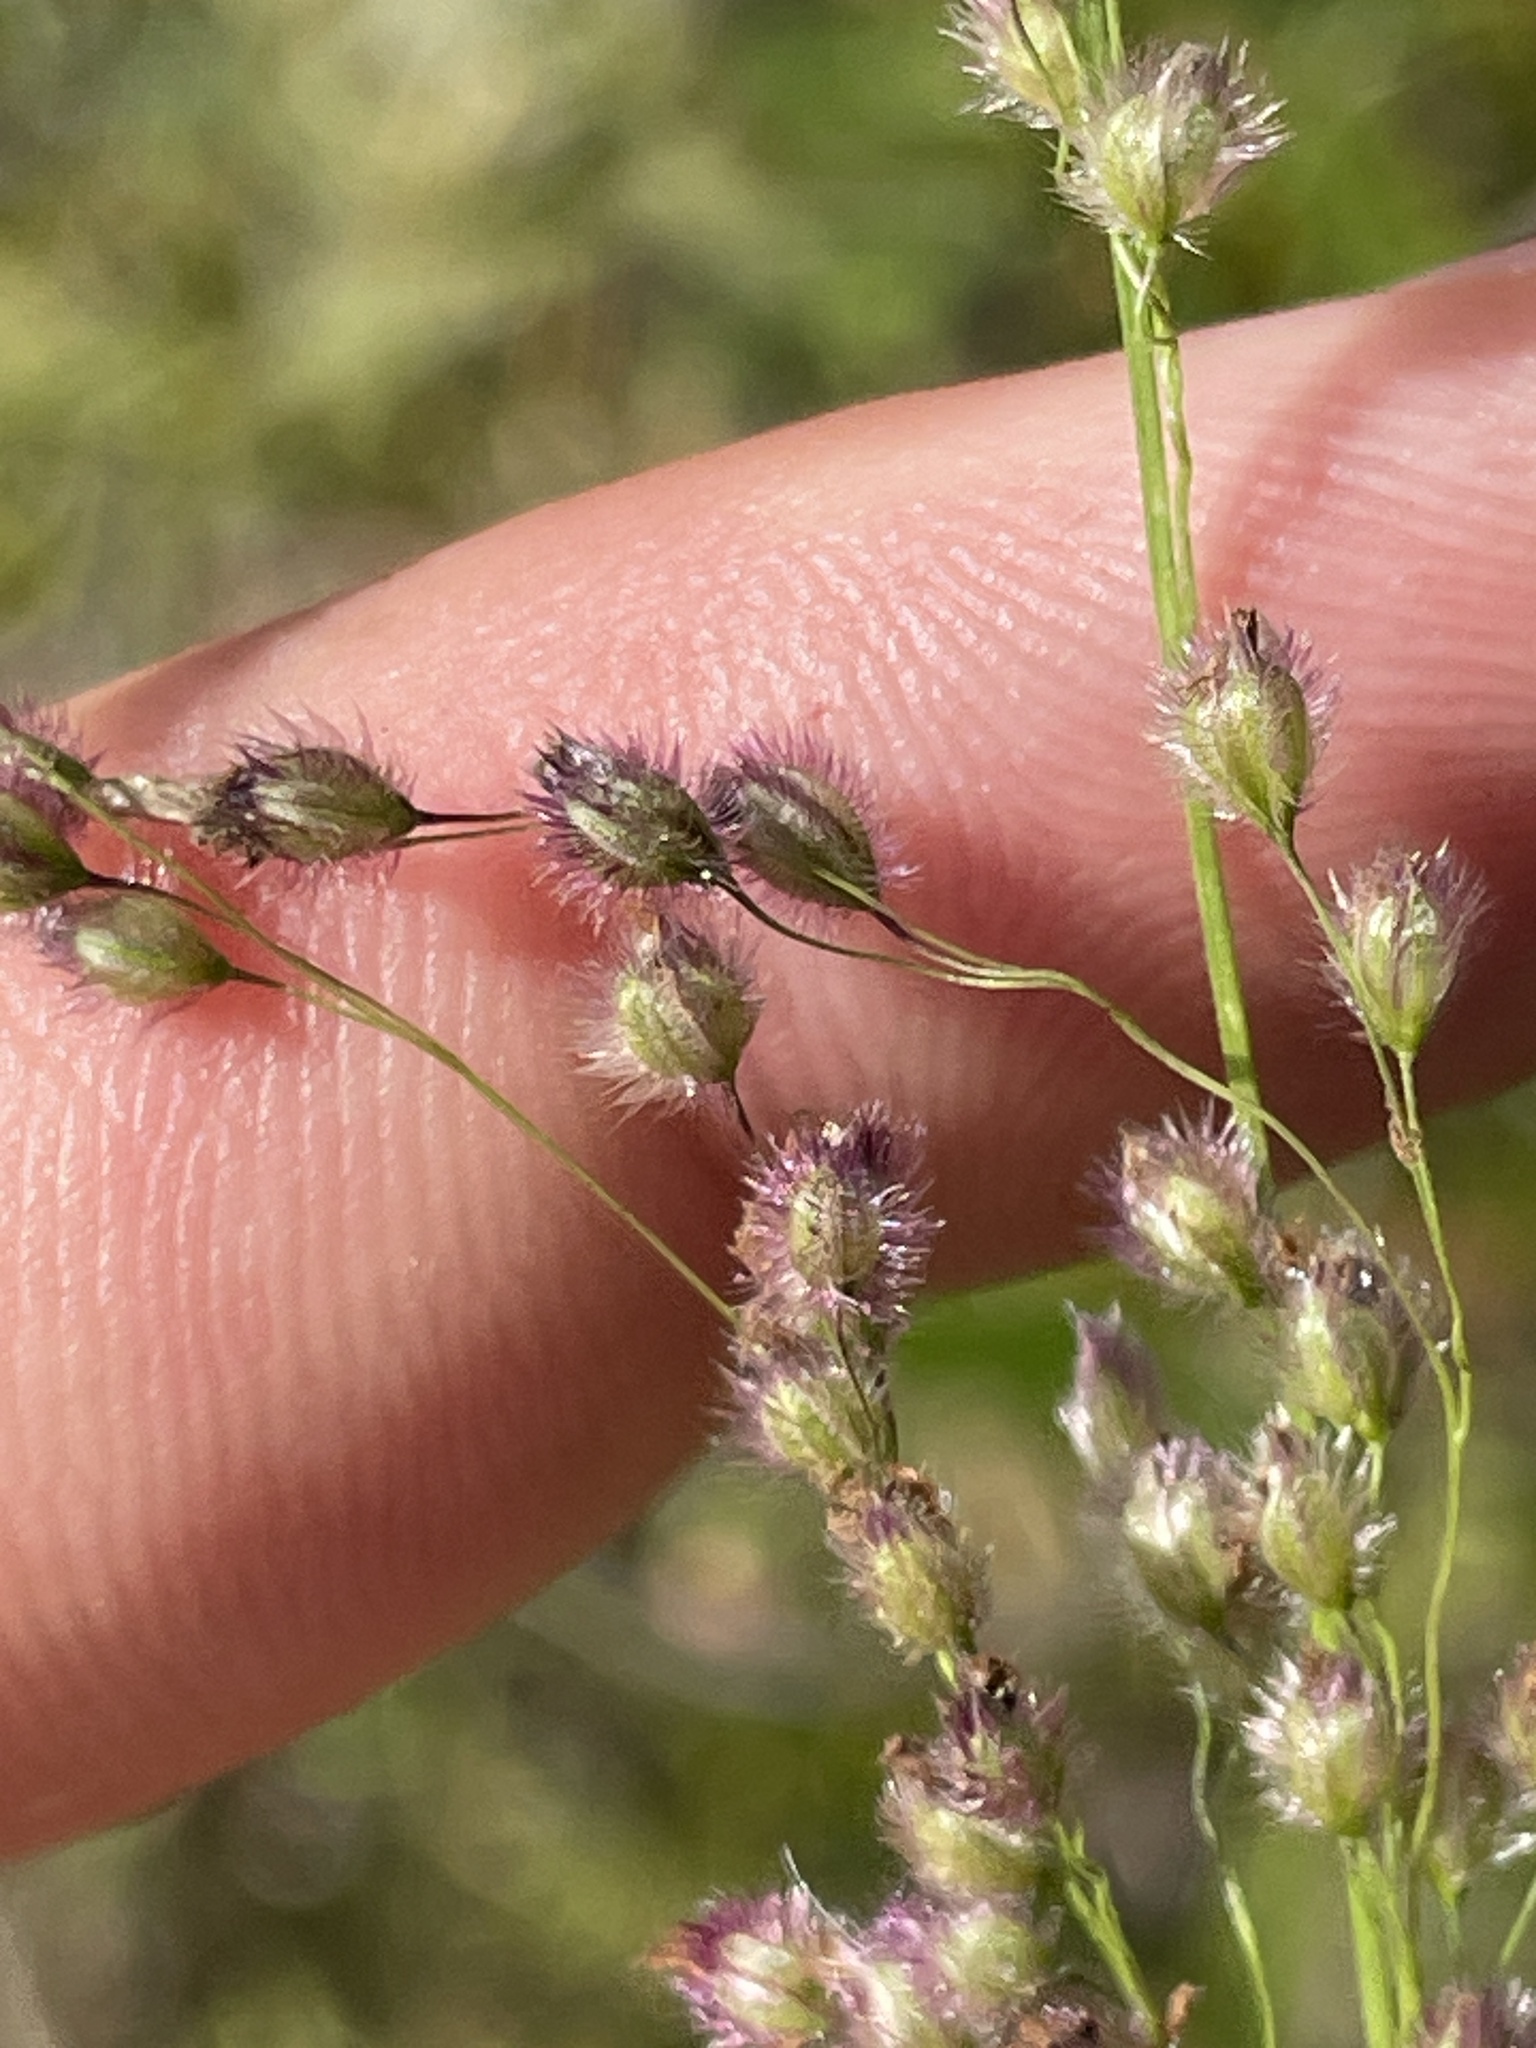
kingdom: Plantae
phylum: Tracheophyta
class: Liliopsida
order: Poales
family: Poaceae
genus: Anthenantia
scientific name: Anthenantia rufa
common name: Purple silkyscale
